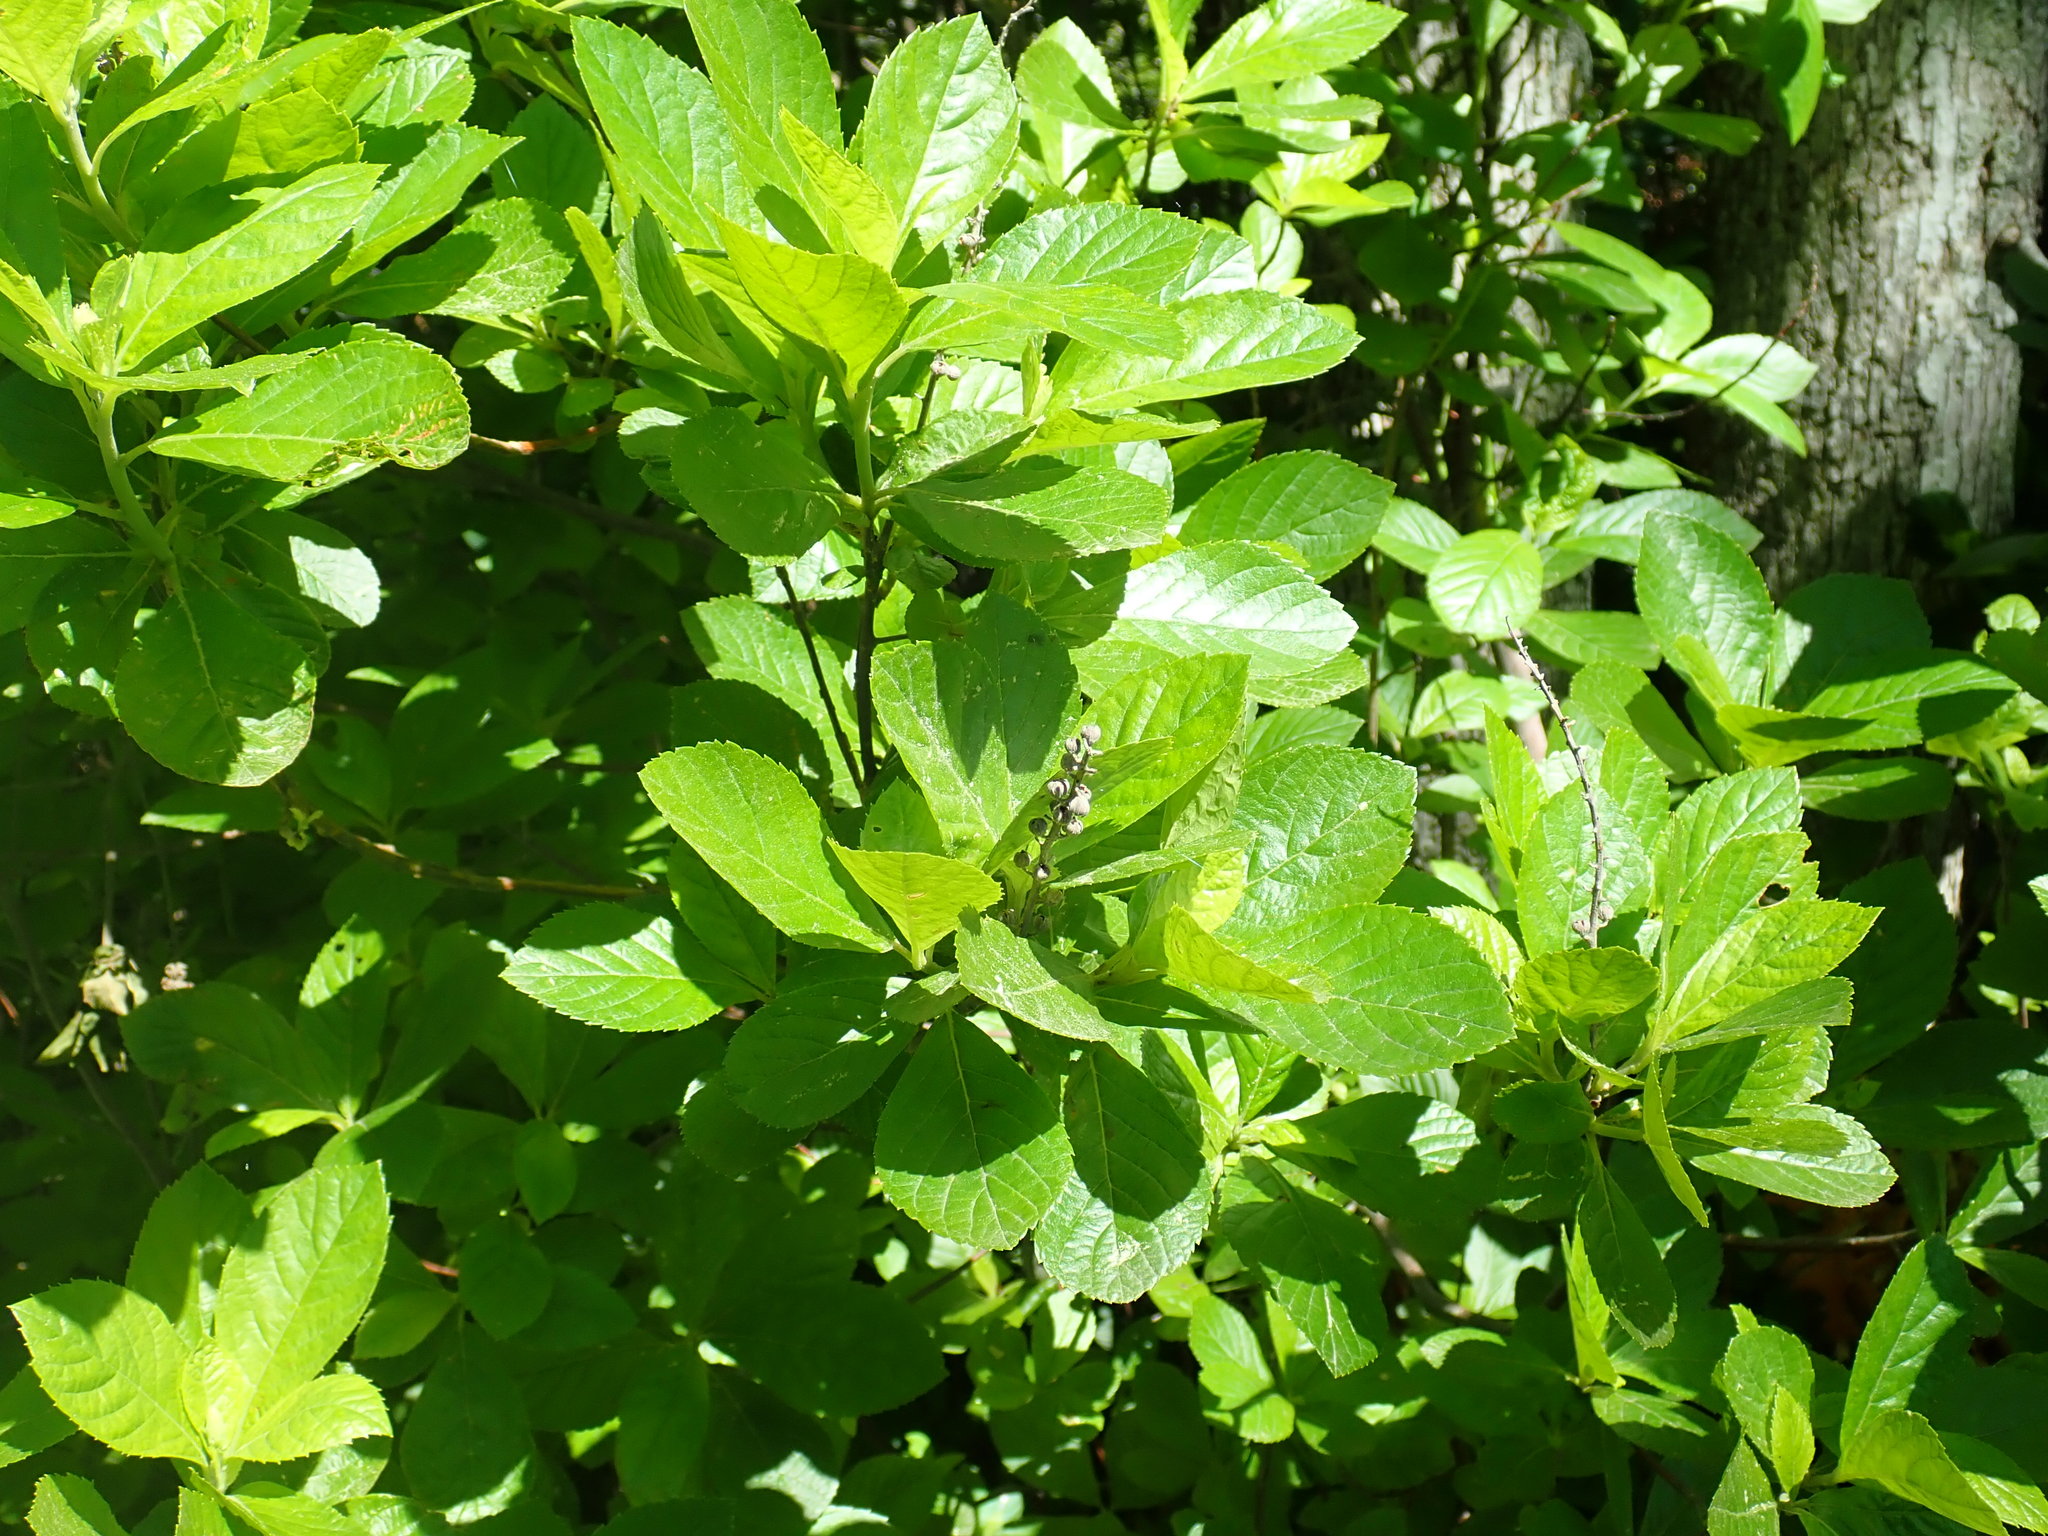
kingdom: Plantae
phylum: Tracheophyta
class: Magnoliopsida
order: Ericales
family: Clethraceae
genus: Clethra
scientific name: Clethra alnifolia
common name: Sweet pepperbush
